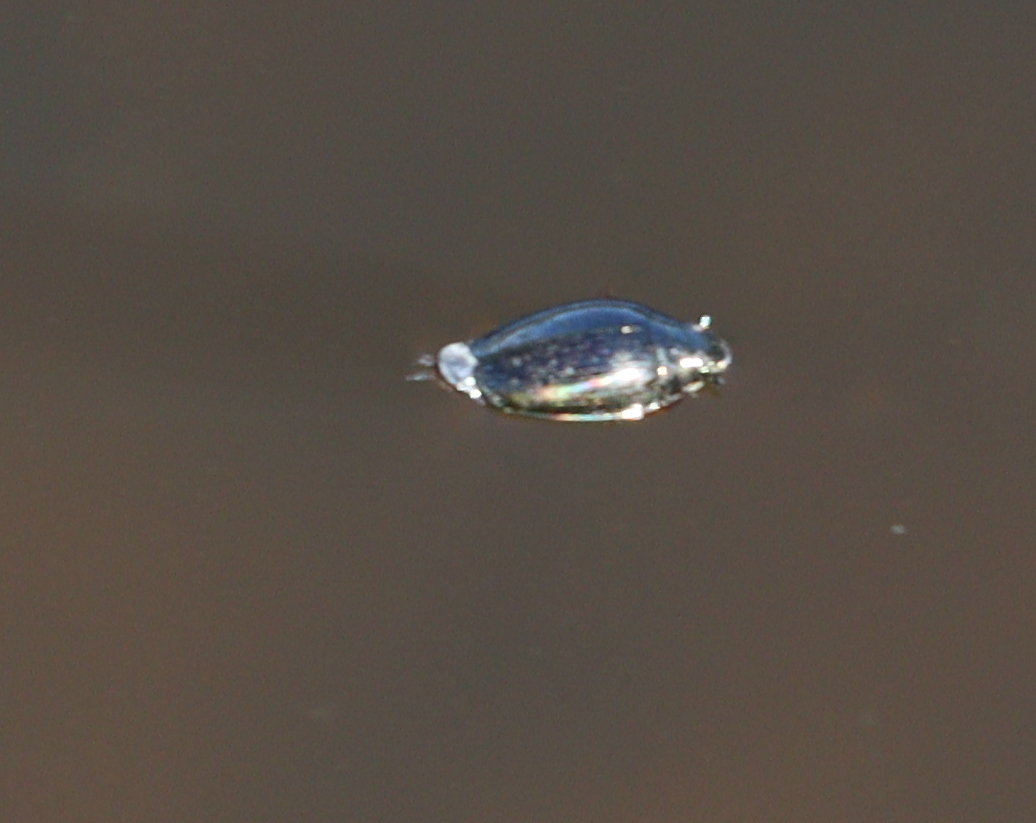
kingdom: Animalia
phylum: Arthropoda
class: Insecta
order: Coleoptera
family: Gyrinidae
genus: Gyrinus
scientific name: Gyrinus
